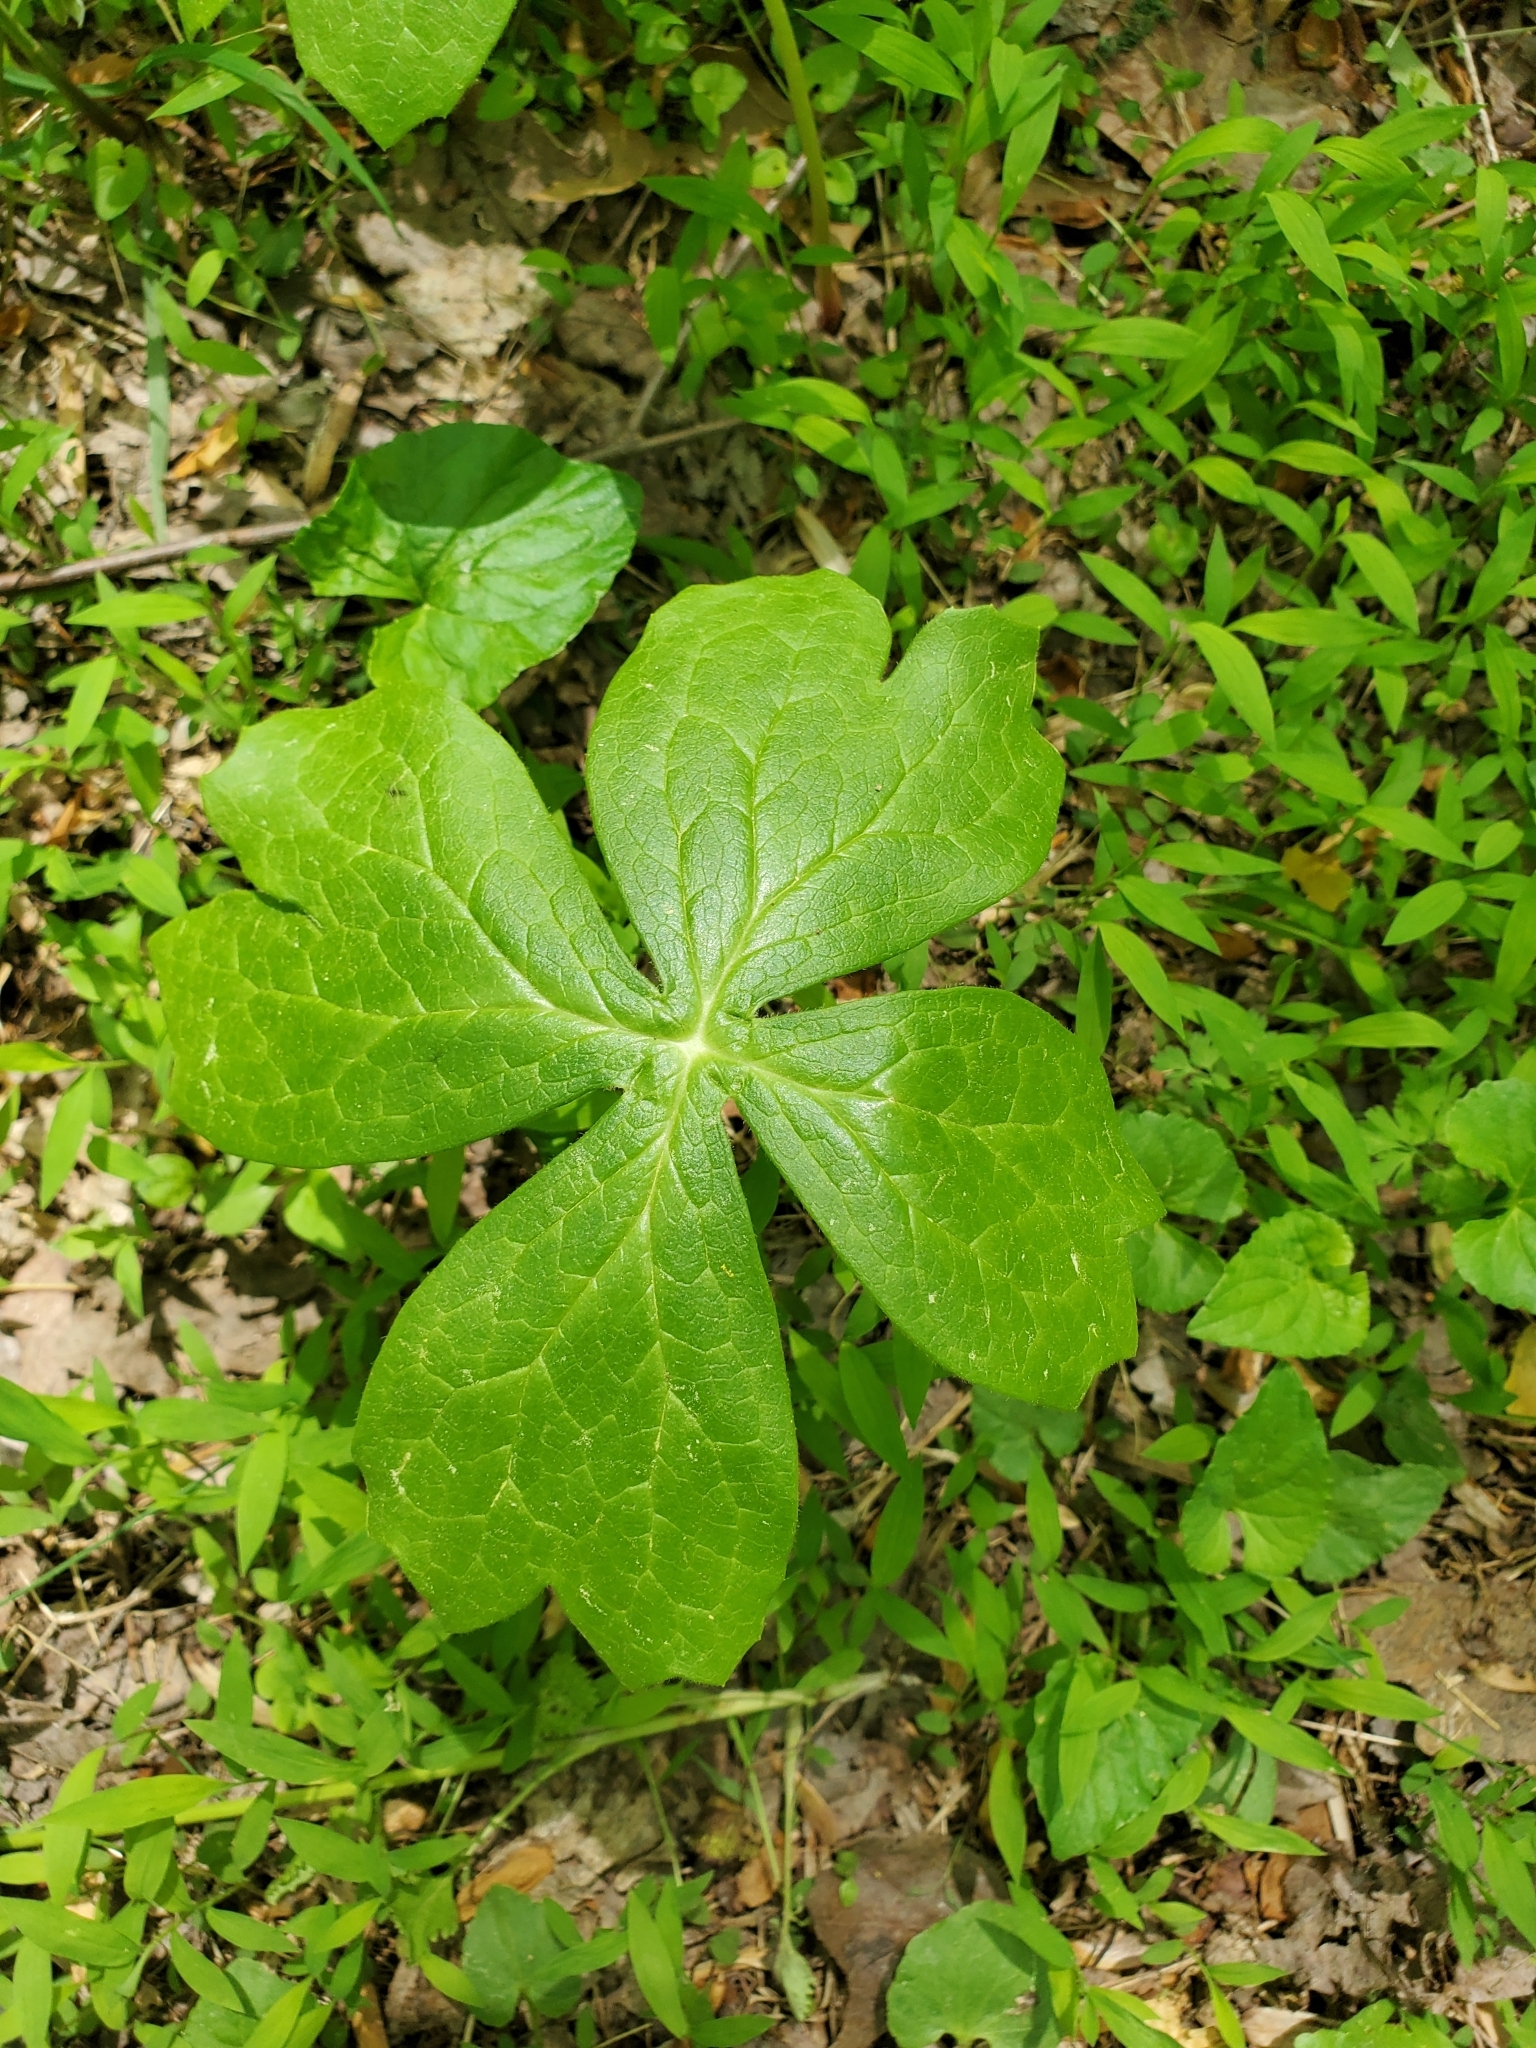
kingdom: Plantae
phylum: Tracheophyta
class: Magnoliopsida
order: Ranunculales
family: Berberidaceae
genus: Podophyllum
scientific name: Podophyllum peltatum
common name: Wild mandrake
